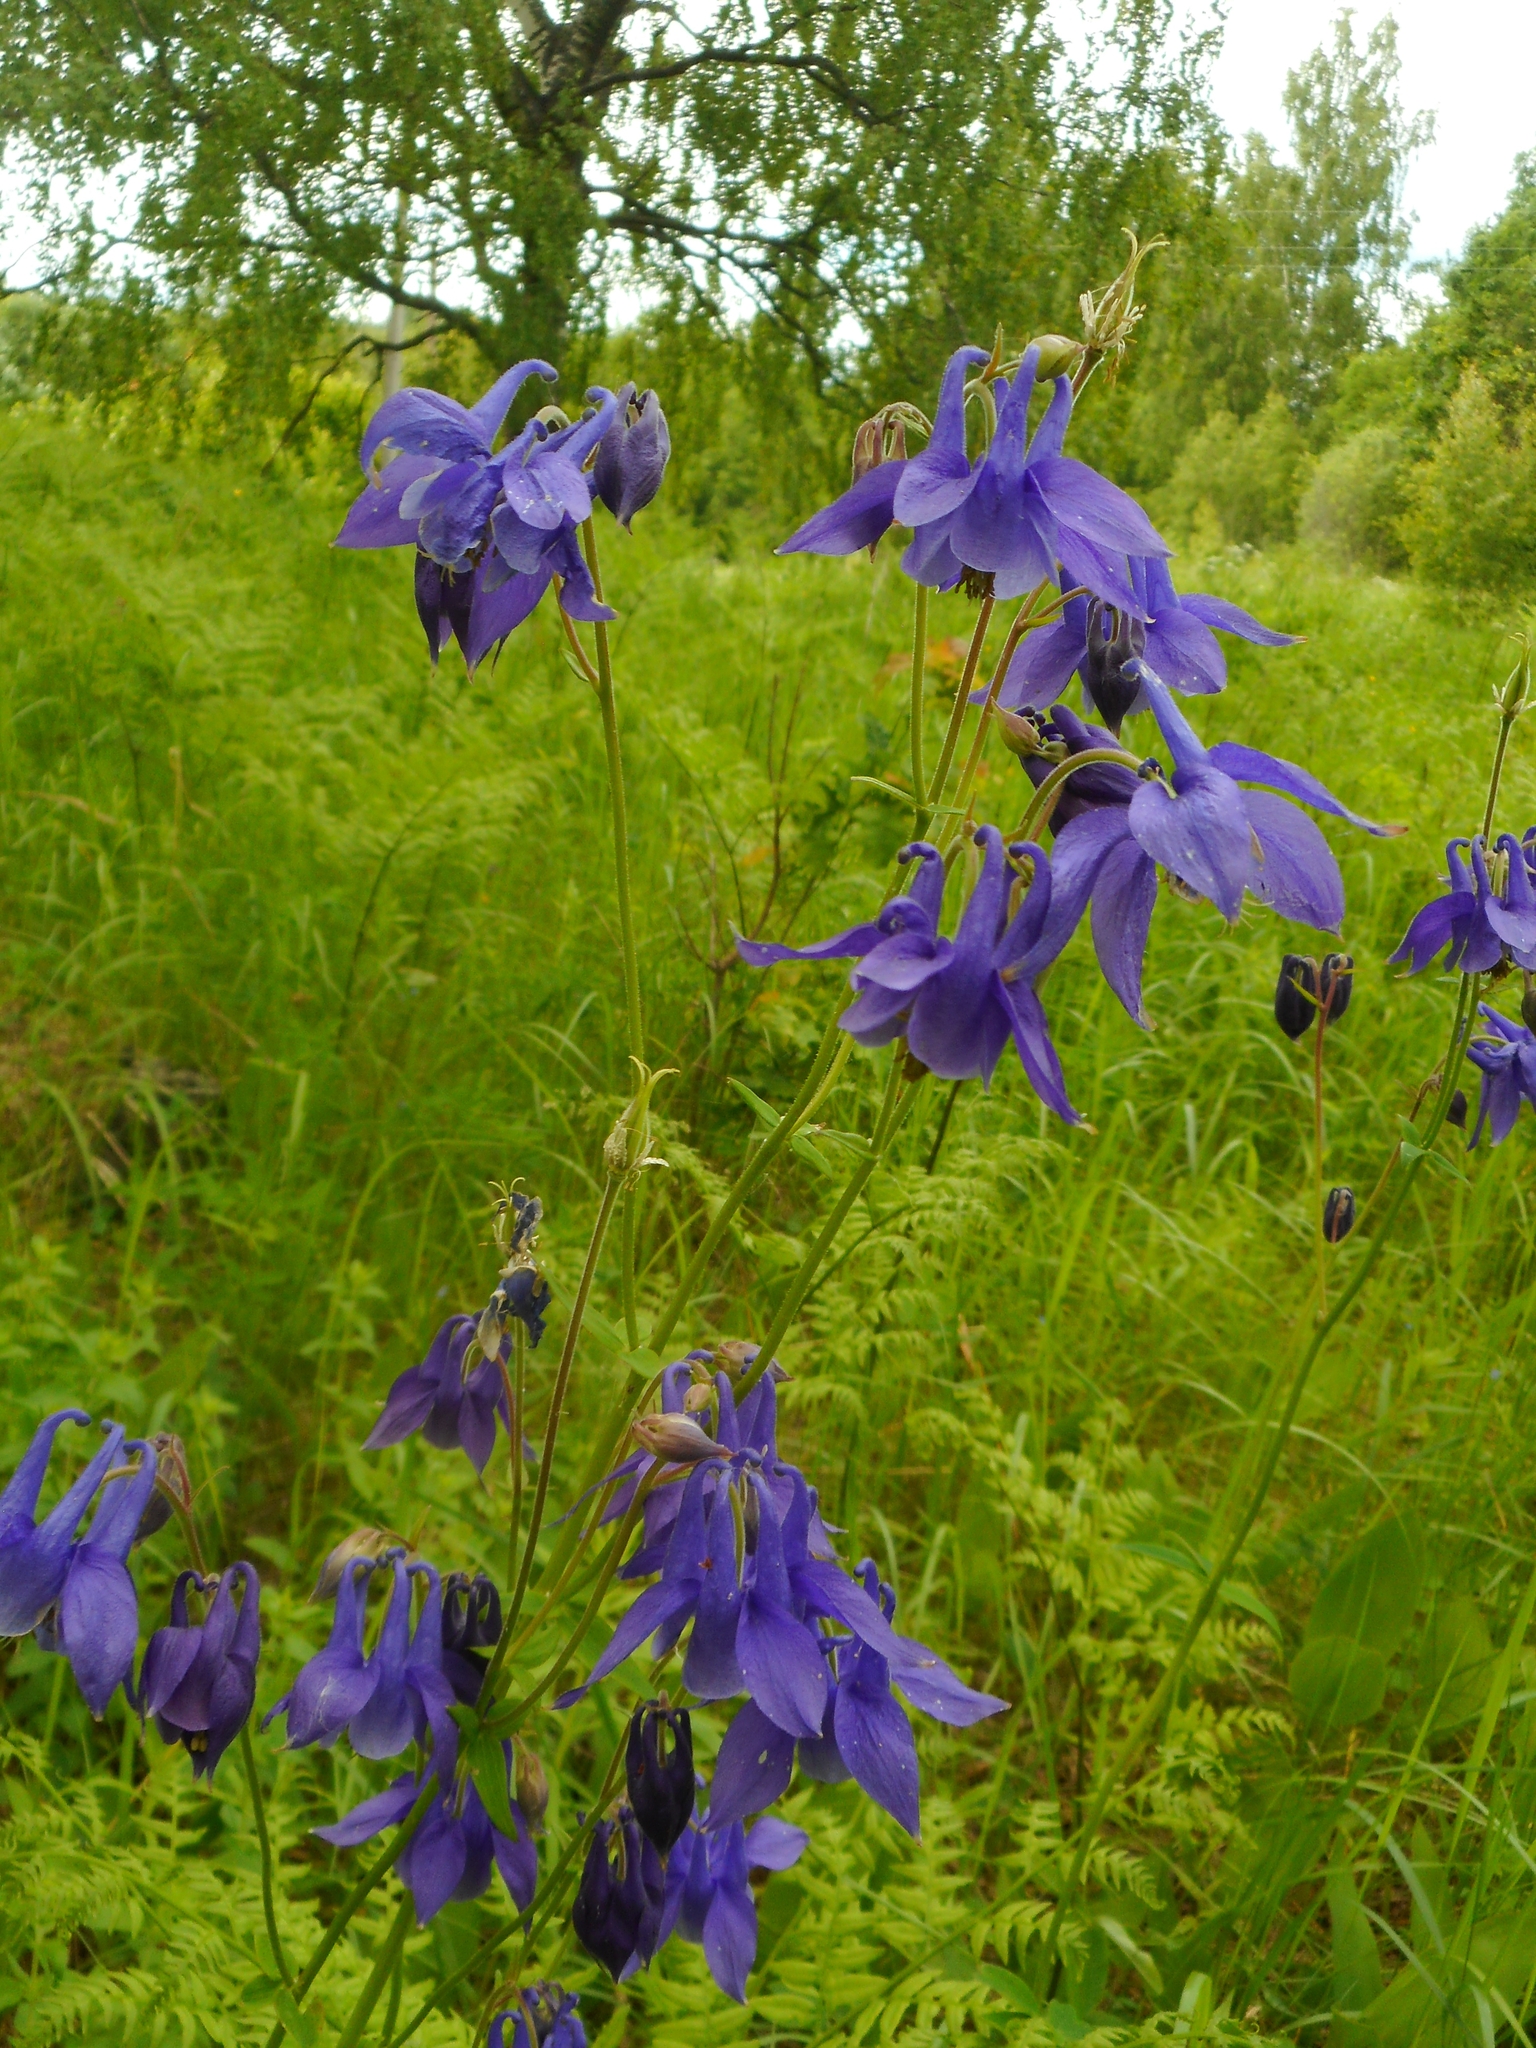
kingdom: Plantae
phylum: Tracheophyta
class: Magnoliopsida
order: Ranunculales
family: Ranunculaceae
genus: Aquilegia
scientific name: Aquilegia vulgaris
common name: Columbine
